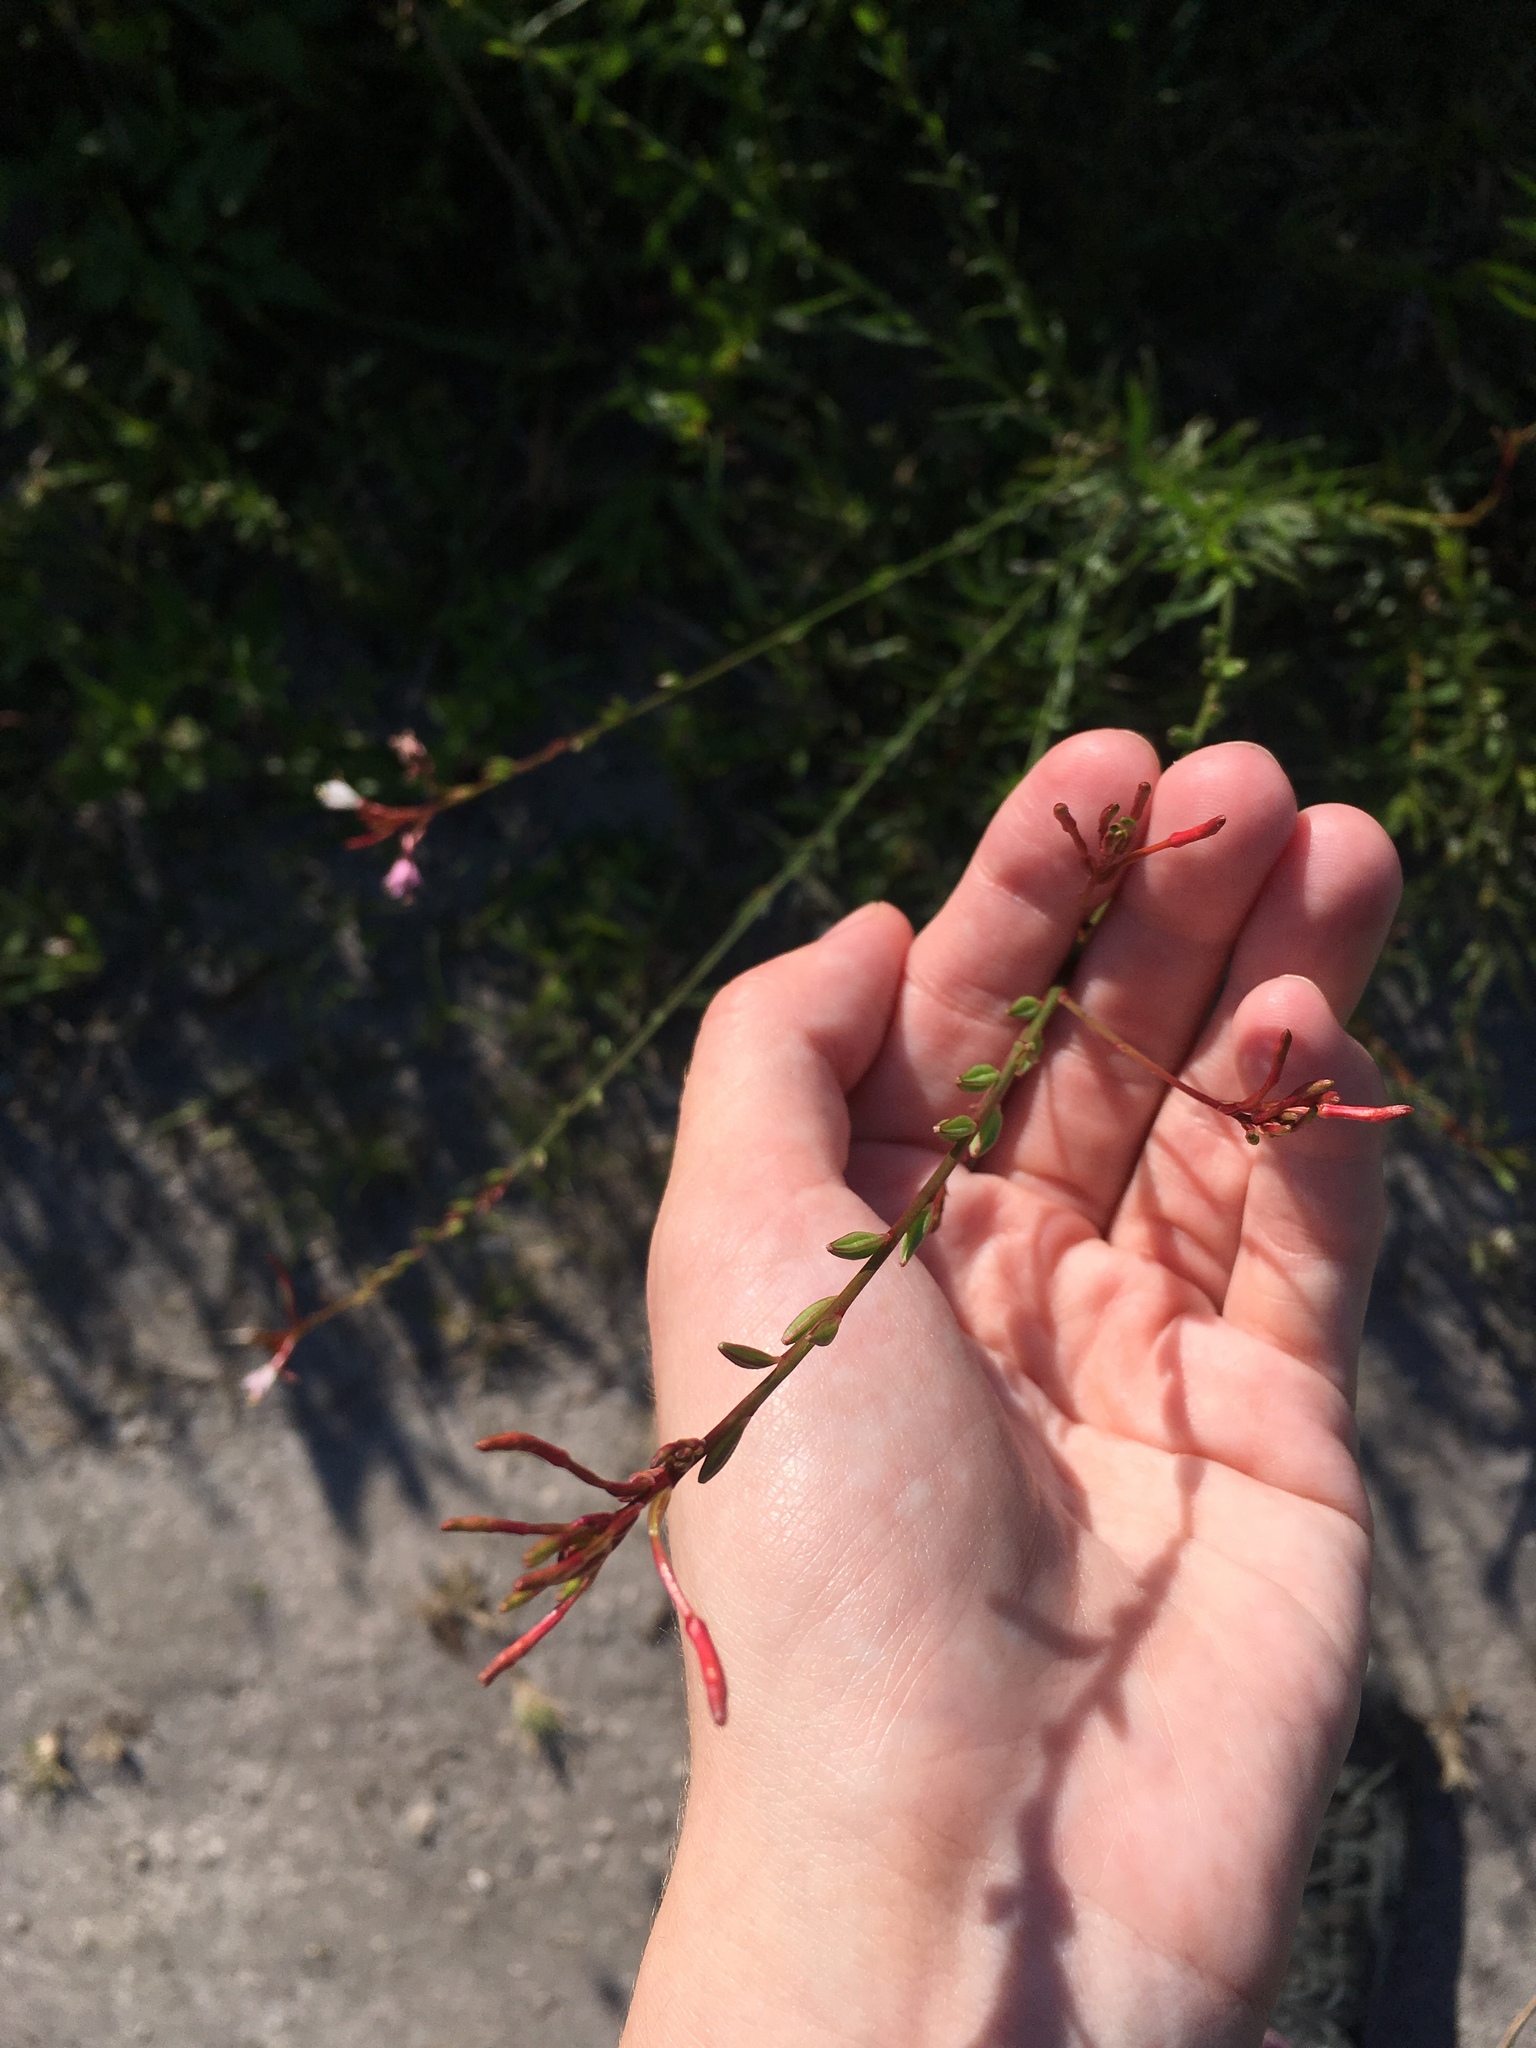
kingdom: Plantae
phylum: Tracheophyta
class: Magnoliopsida
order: Myrtales
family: Onagraceae
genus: Oenothera
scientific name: Oenothera simulans
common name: Southern beeblossom
